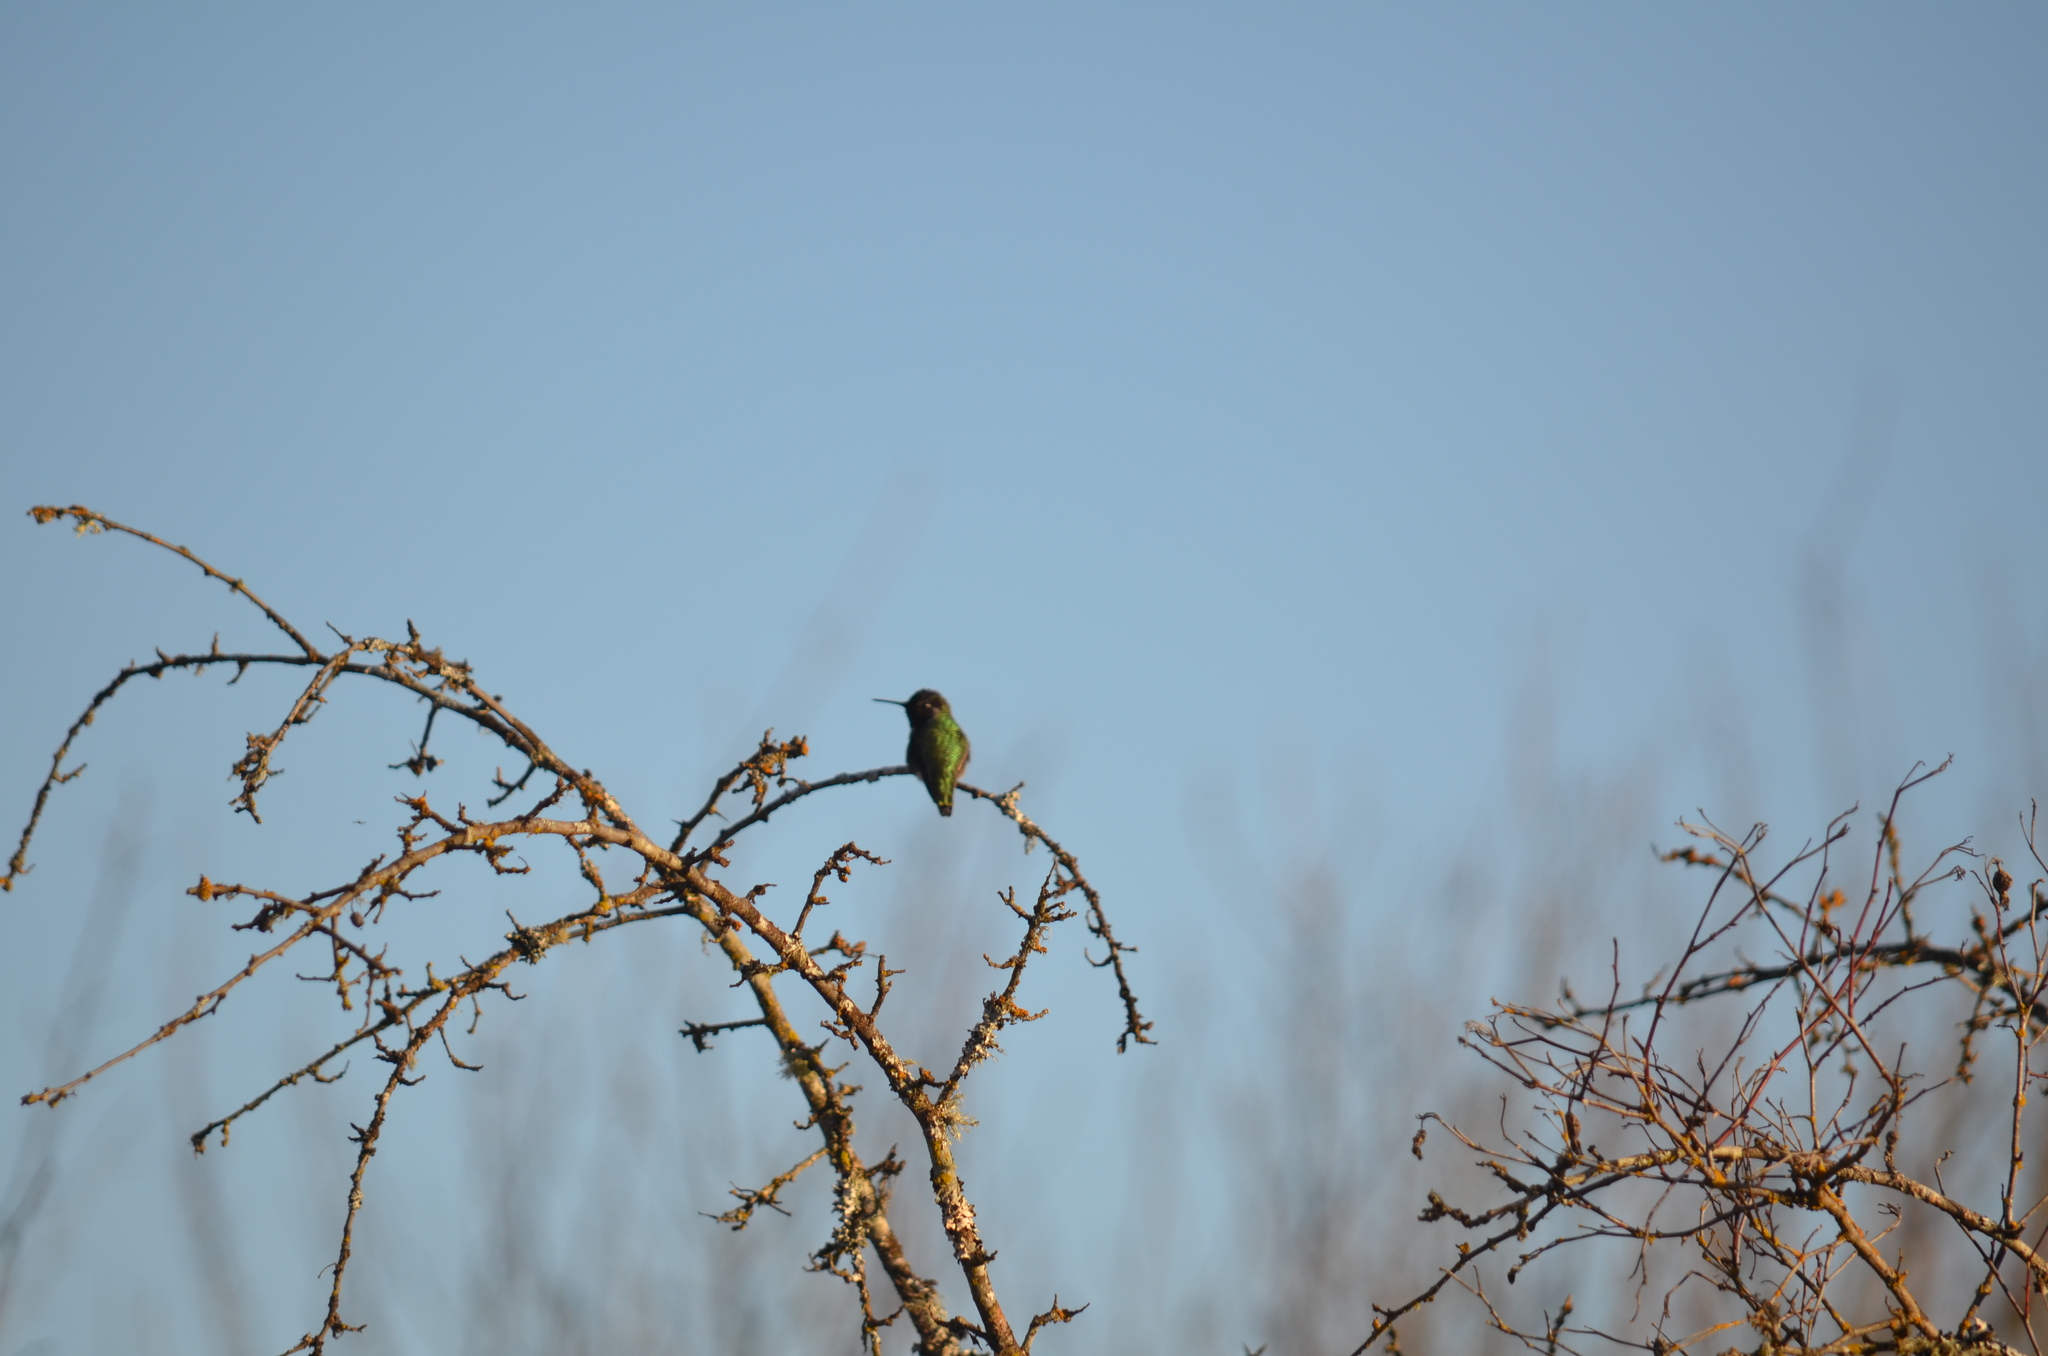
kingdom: Animalia
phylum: Chordata
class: Aves
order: Apodiformes
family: Trochilidae
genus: Calypte
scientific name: Calypte anna
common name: Anna's hummingbird
